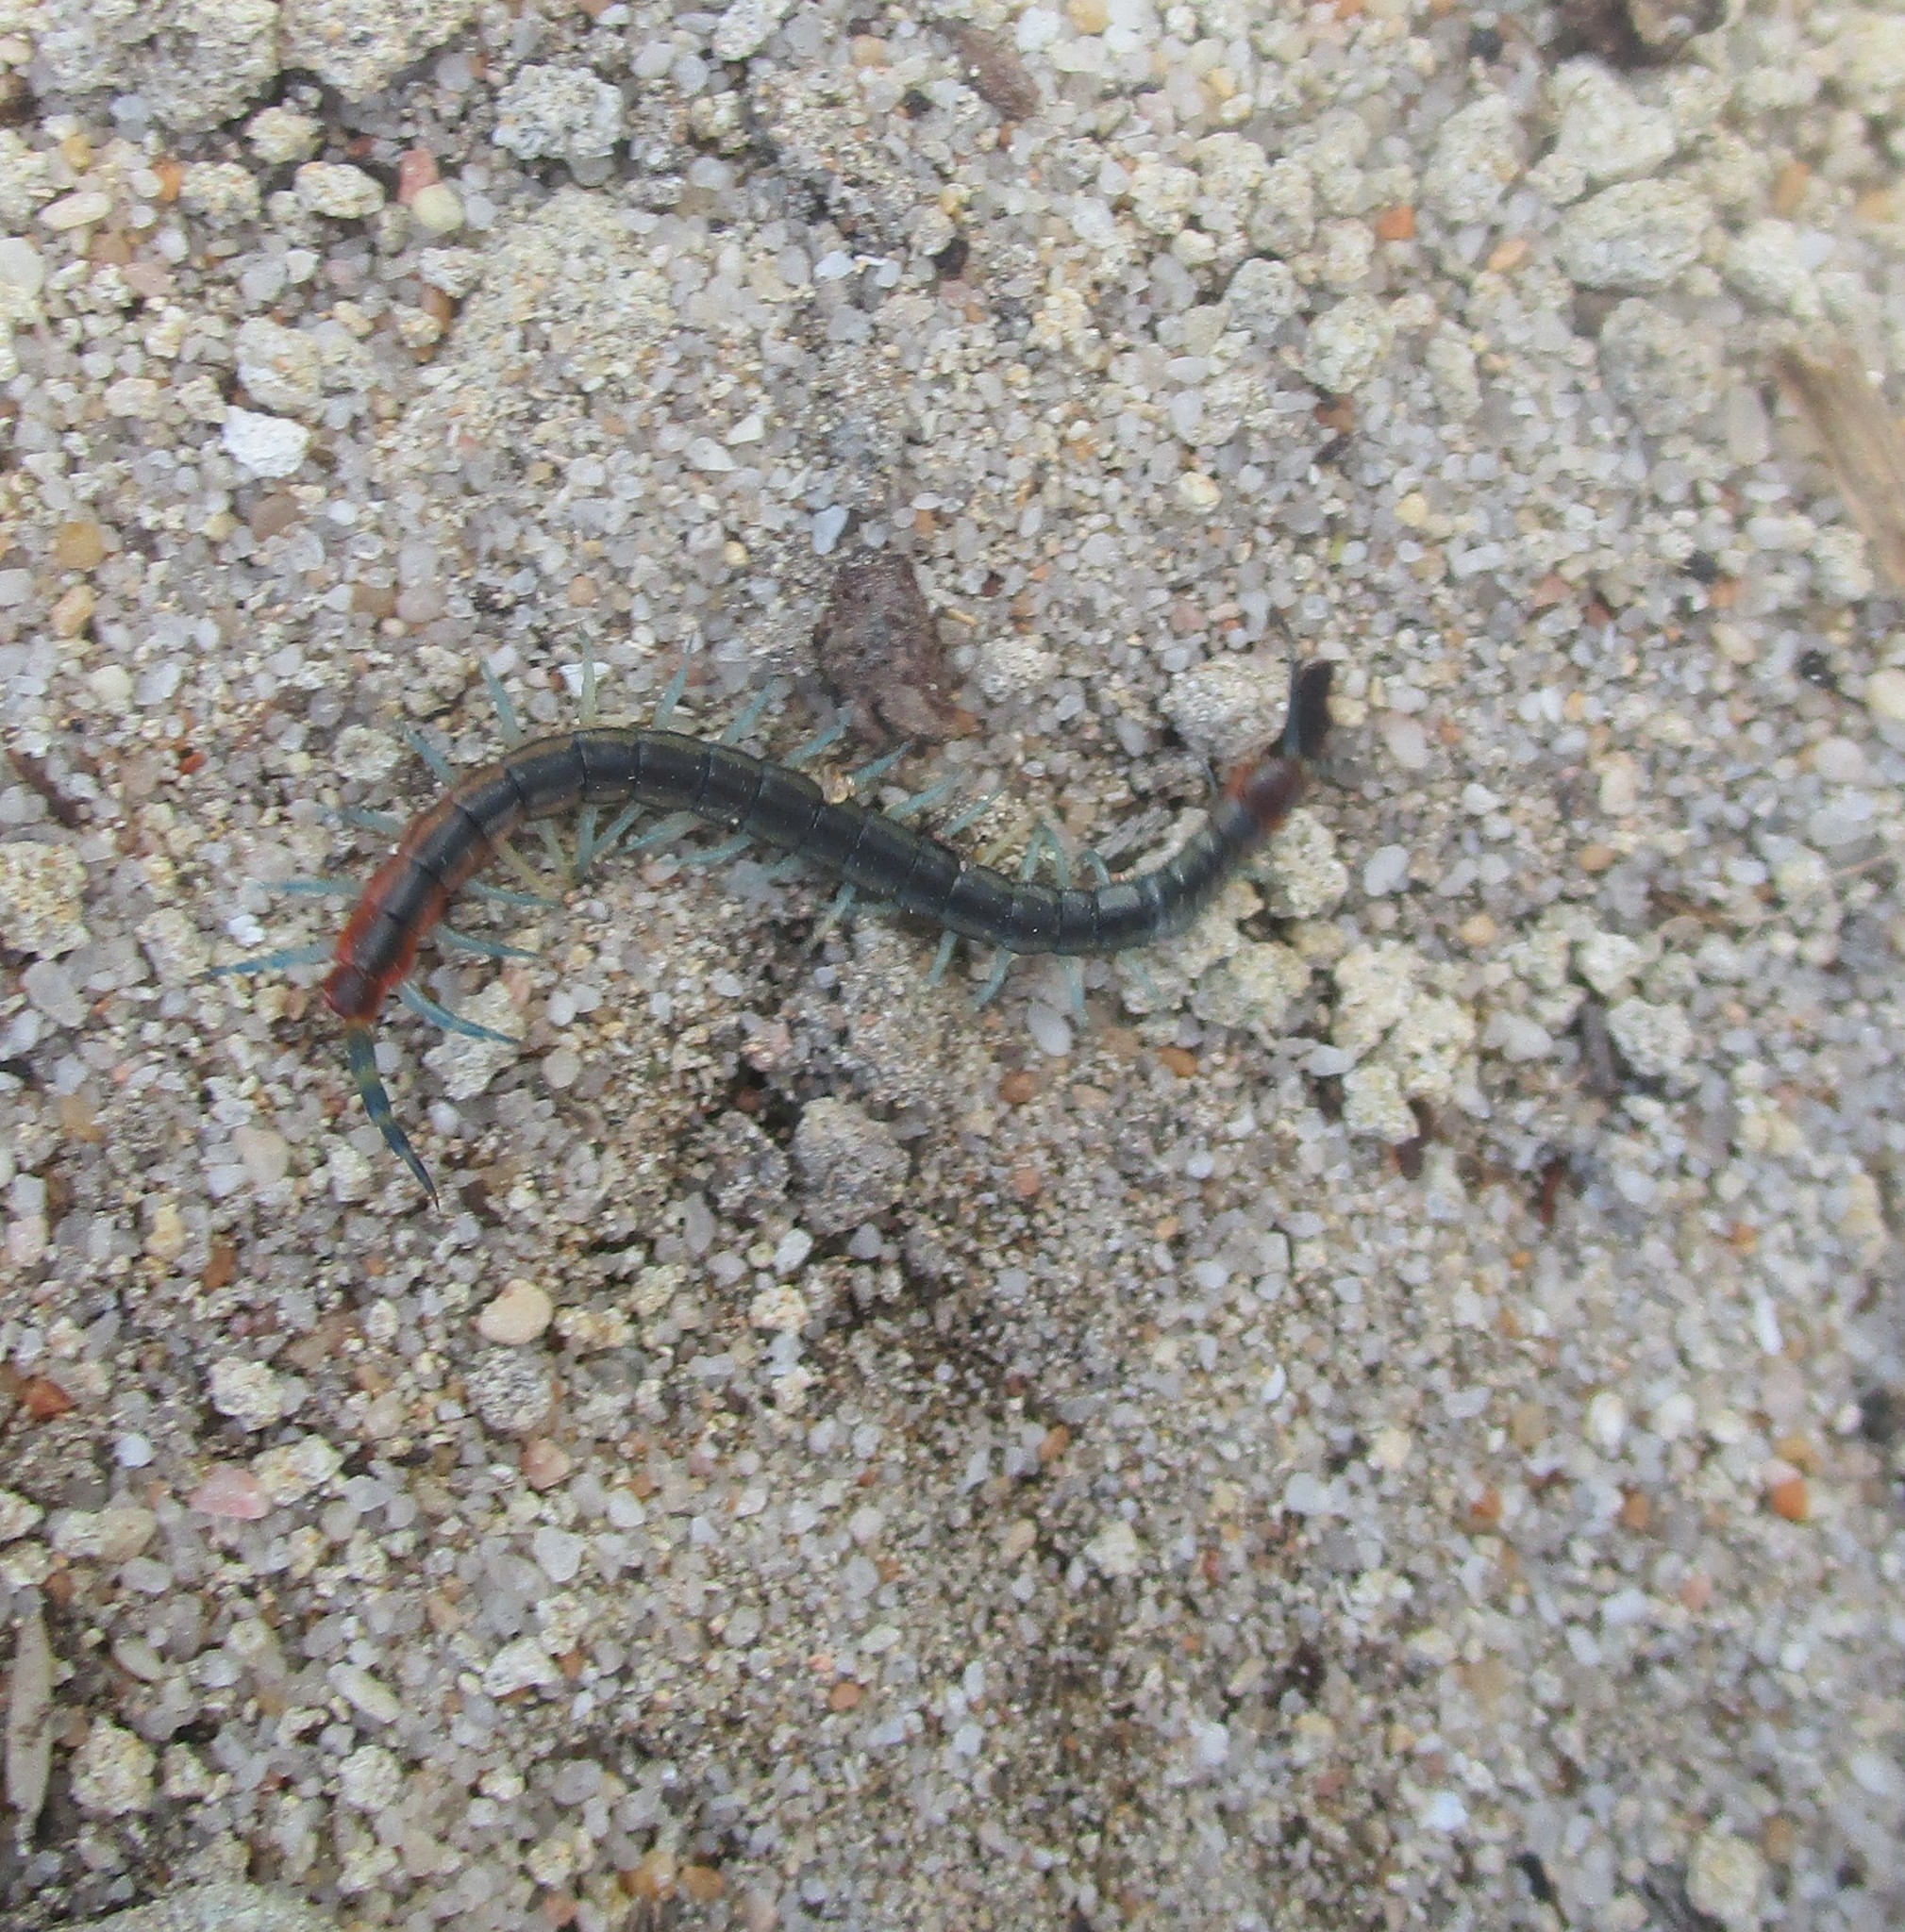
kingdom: Animalia
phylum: Arthropoda
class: Chilopoda
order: Scolopendromorpha
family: Scolopendridae
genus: Scolopendra
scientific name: Scolopendra laeta
